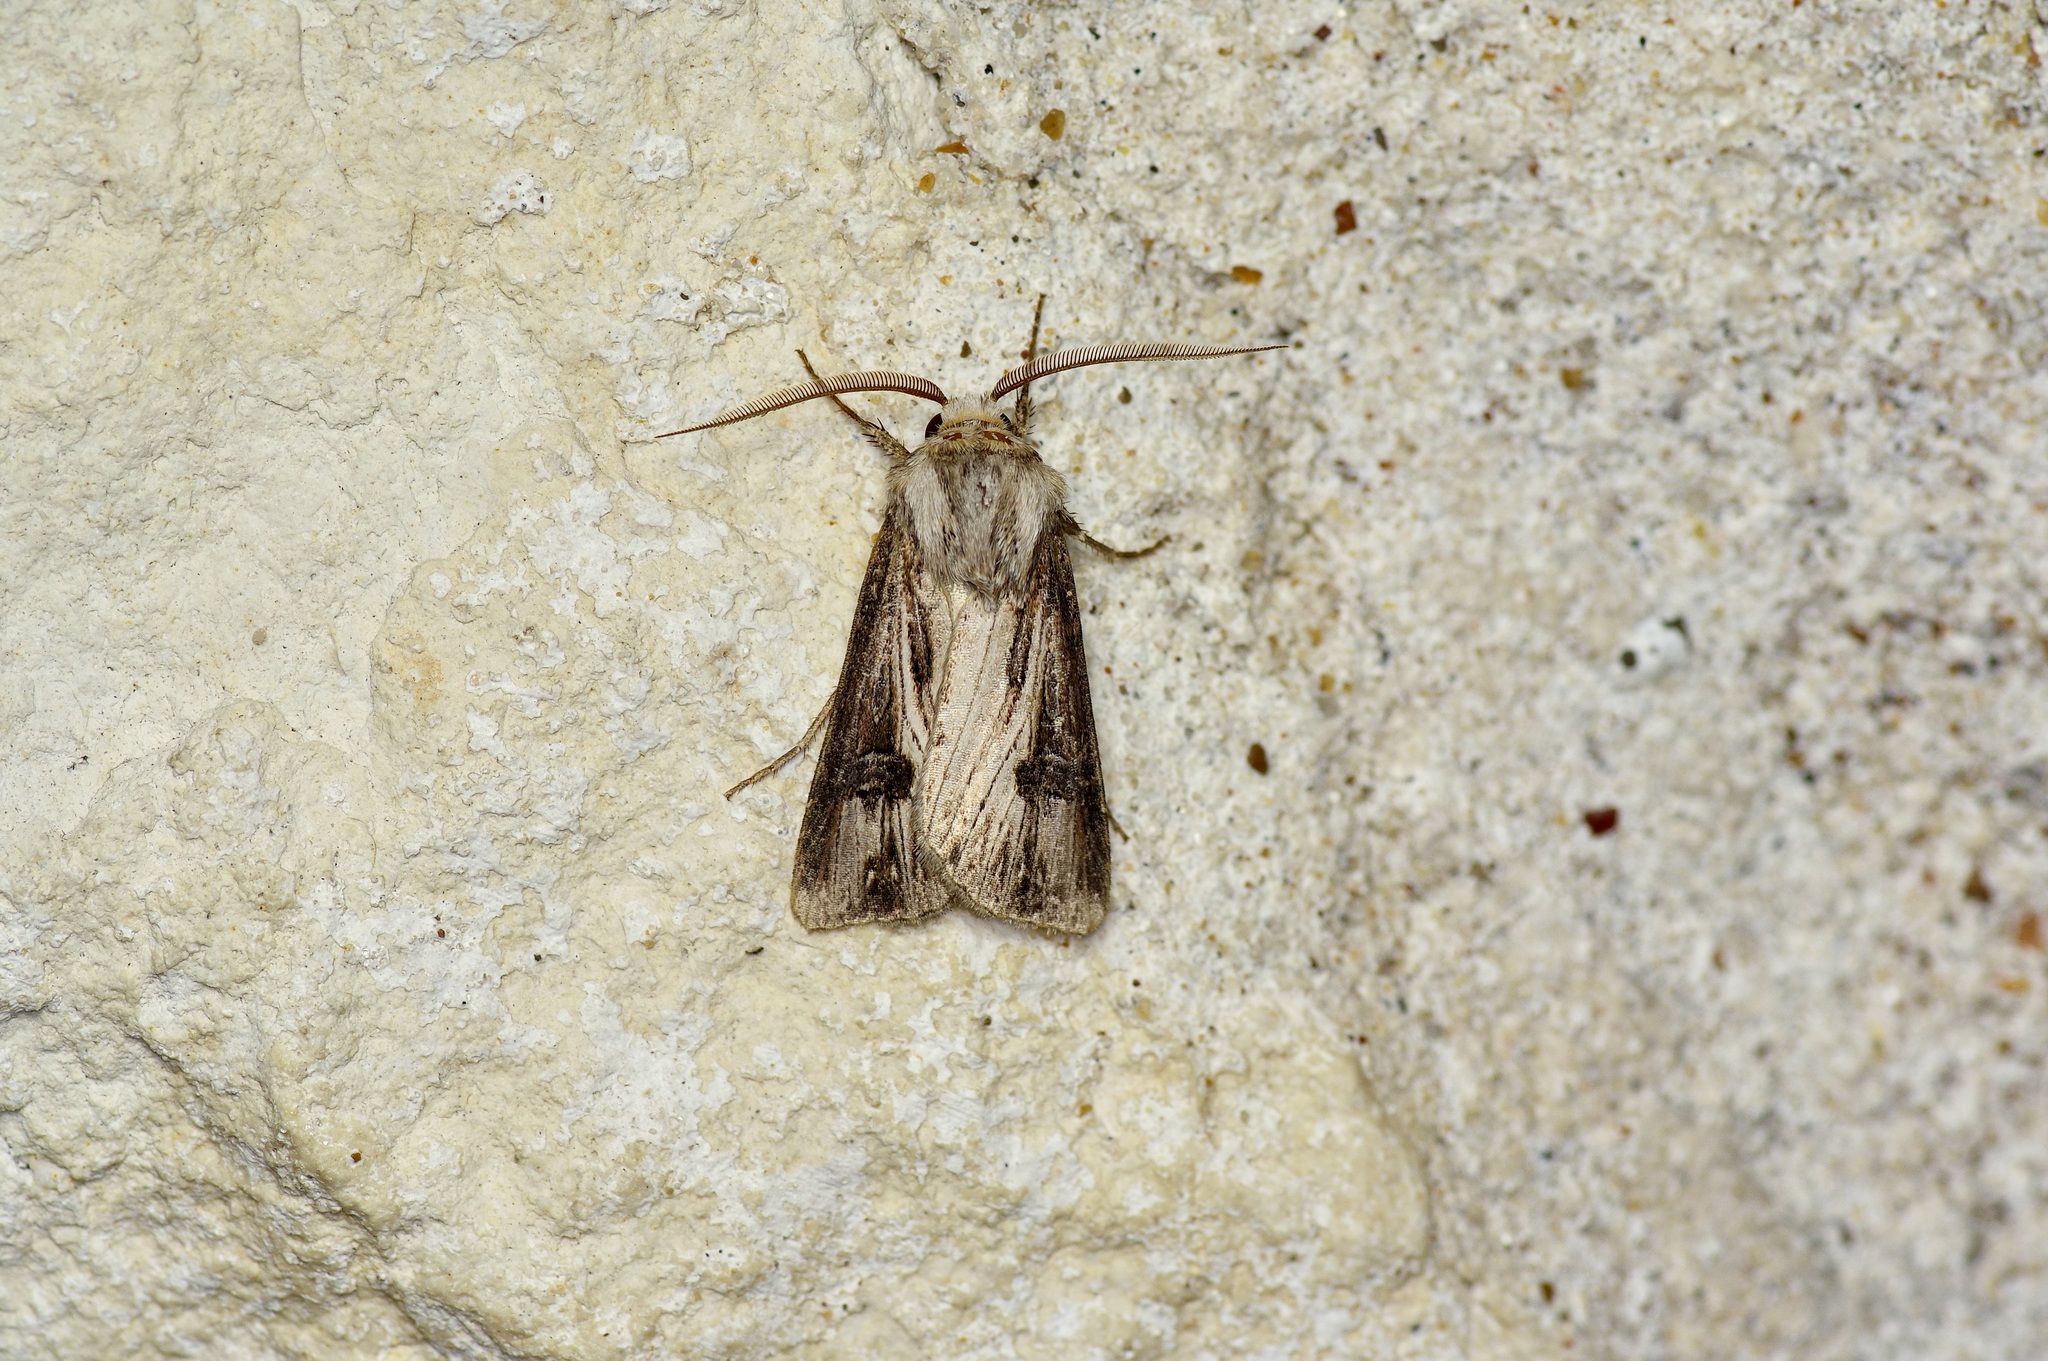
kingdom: Animalia
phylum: Arthropoda
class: Insecta
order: Lepidoptera
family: Noctuidae
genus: Agrotis
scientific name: Agrotis venerabilis
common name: Venerable dart
